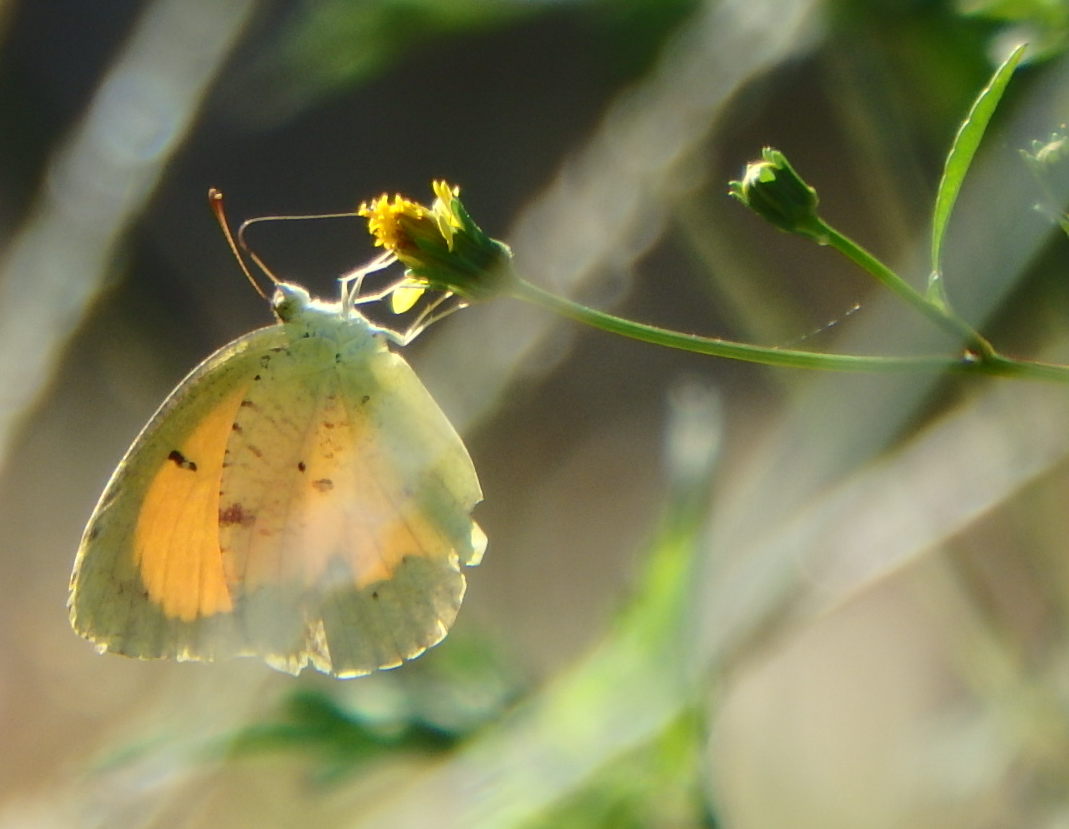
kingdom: Animalia
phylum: Arthropoda
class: Insecta
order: Lepidoptera
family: Pieridae
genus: Abaeis
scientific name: Abaeis nicippe
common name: Sleepy orange
